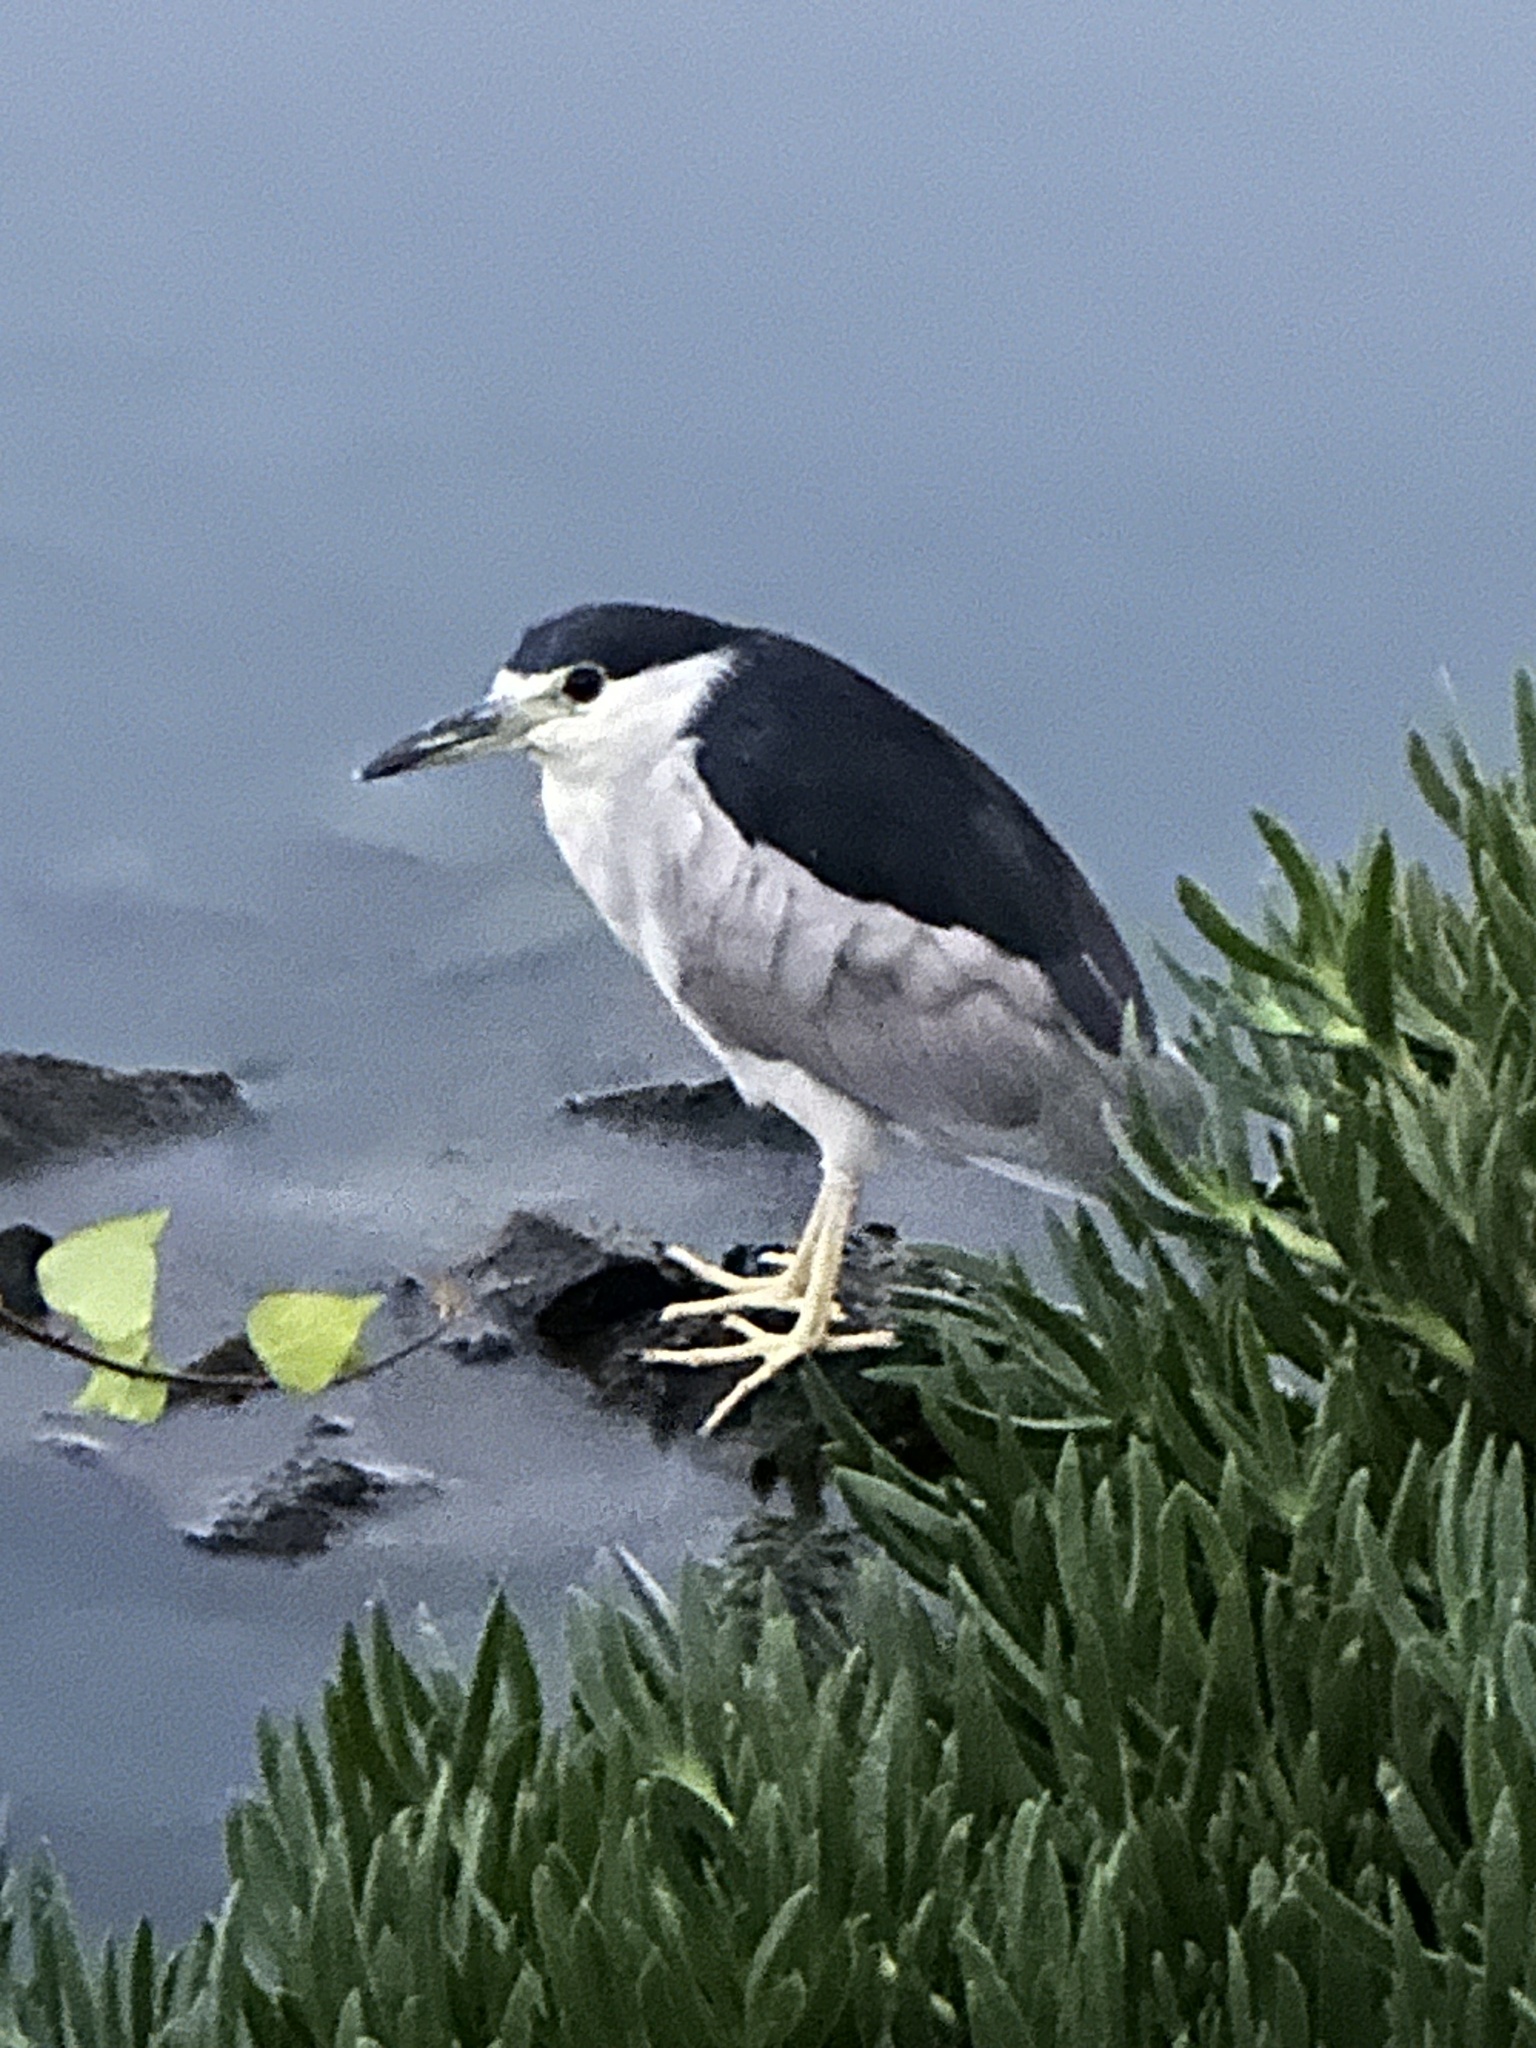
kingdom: Animalia
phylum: Chordata
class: Aves
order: Pelecaniformes
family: Ardeidae
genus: Nycticorax
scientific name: Nycticorax nycticorax
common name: Black-crowned night heron
